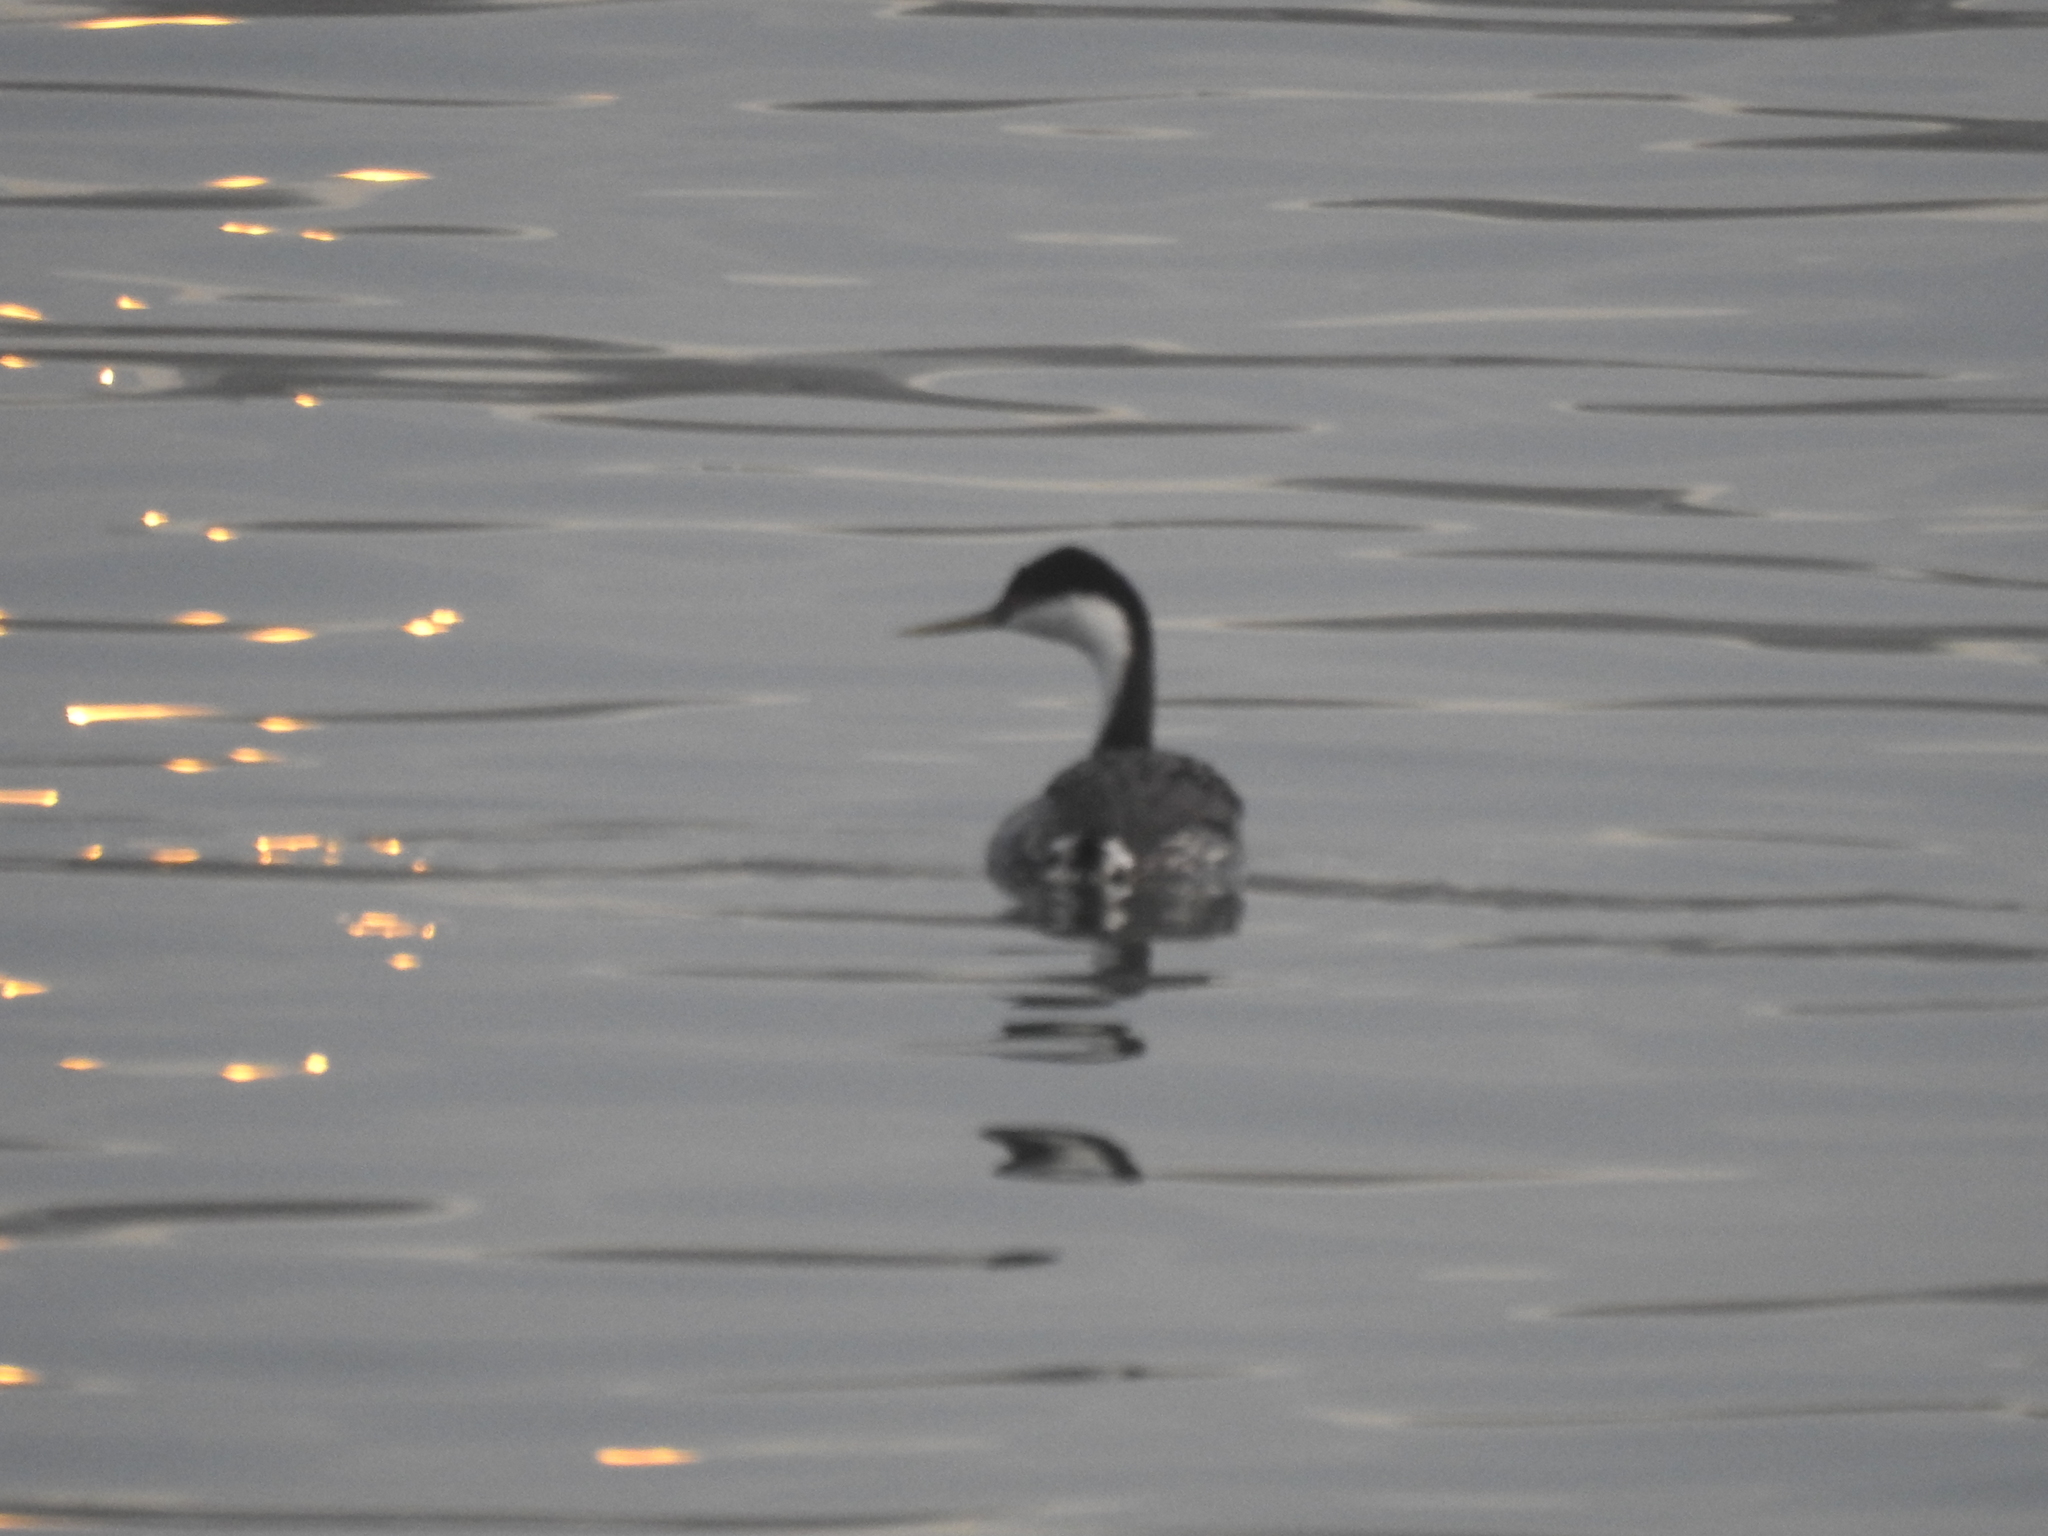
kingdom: Animalia
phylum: Chordata
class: Aves
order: Podicipediformes
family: Podicipedidae
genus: Aechmophorus
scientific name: Aechmophorus occidentalis
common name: Western grebe
